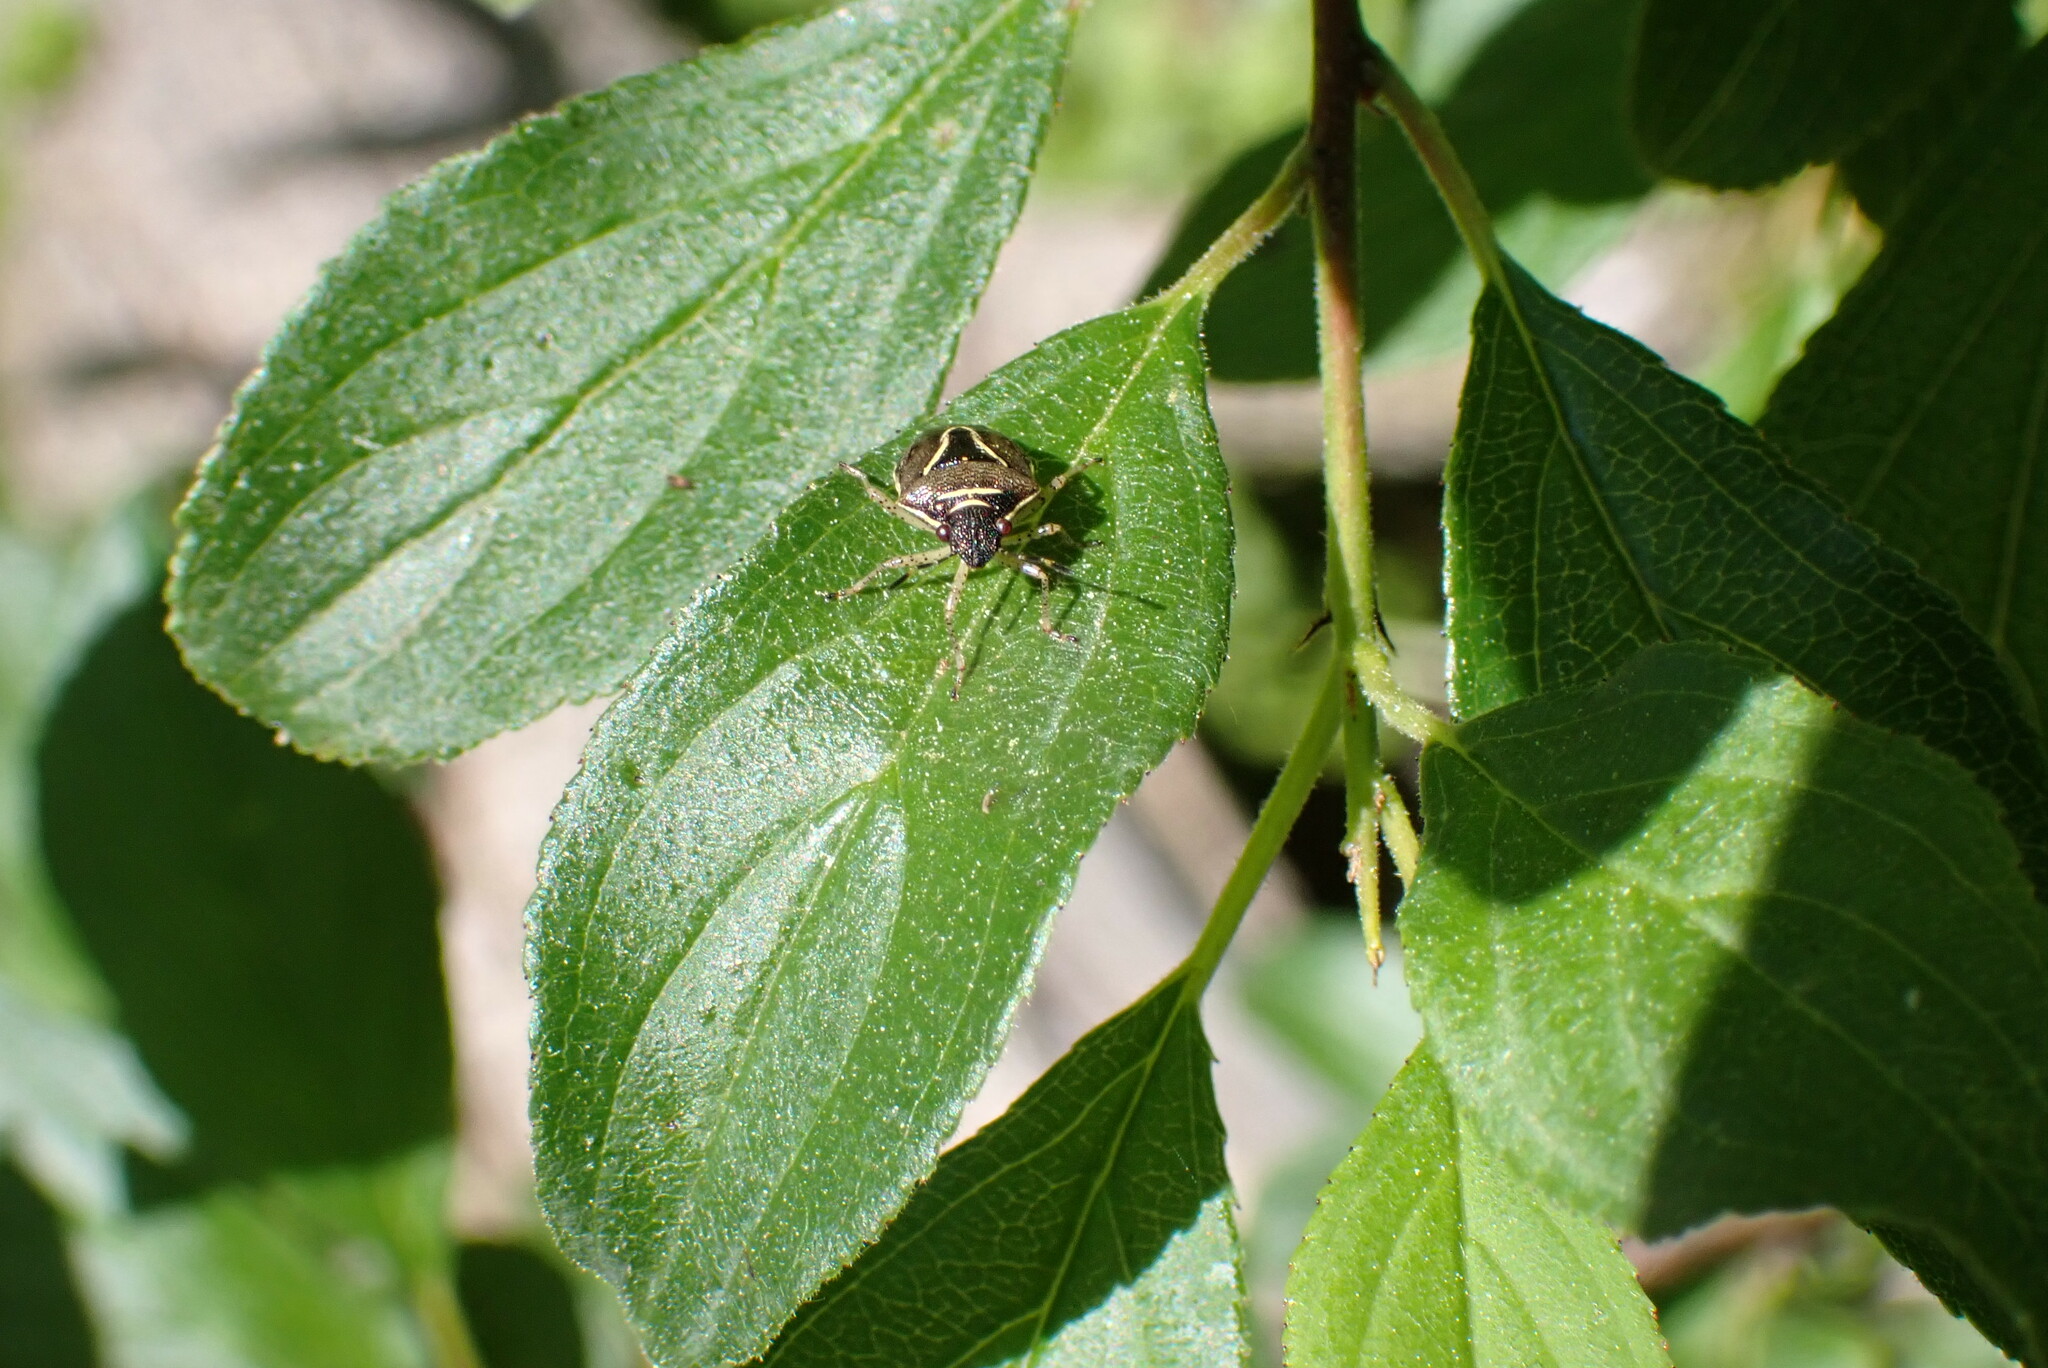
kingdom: Animalia
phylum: Arthropoda
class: Insecta
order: Hemiptera
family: Pentatomidae
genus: Mormidea
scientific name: Mormidea lugens
